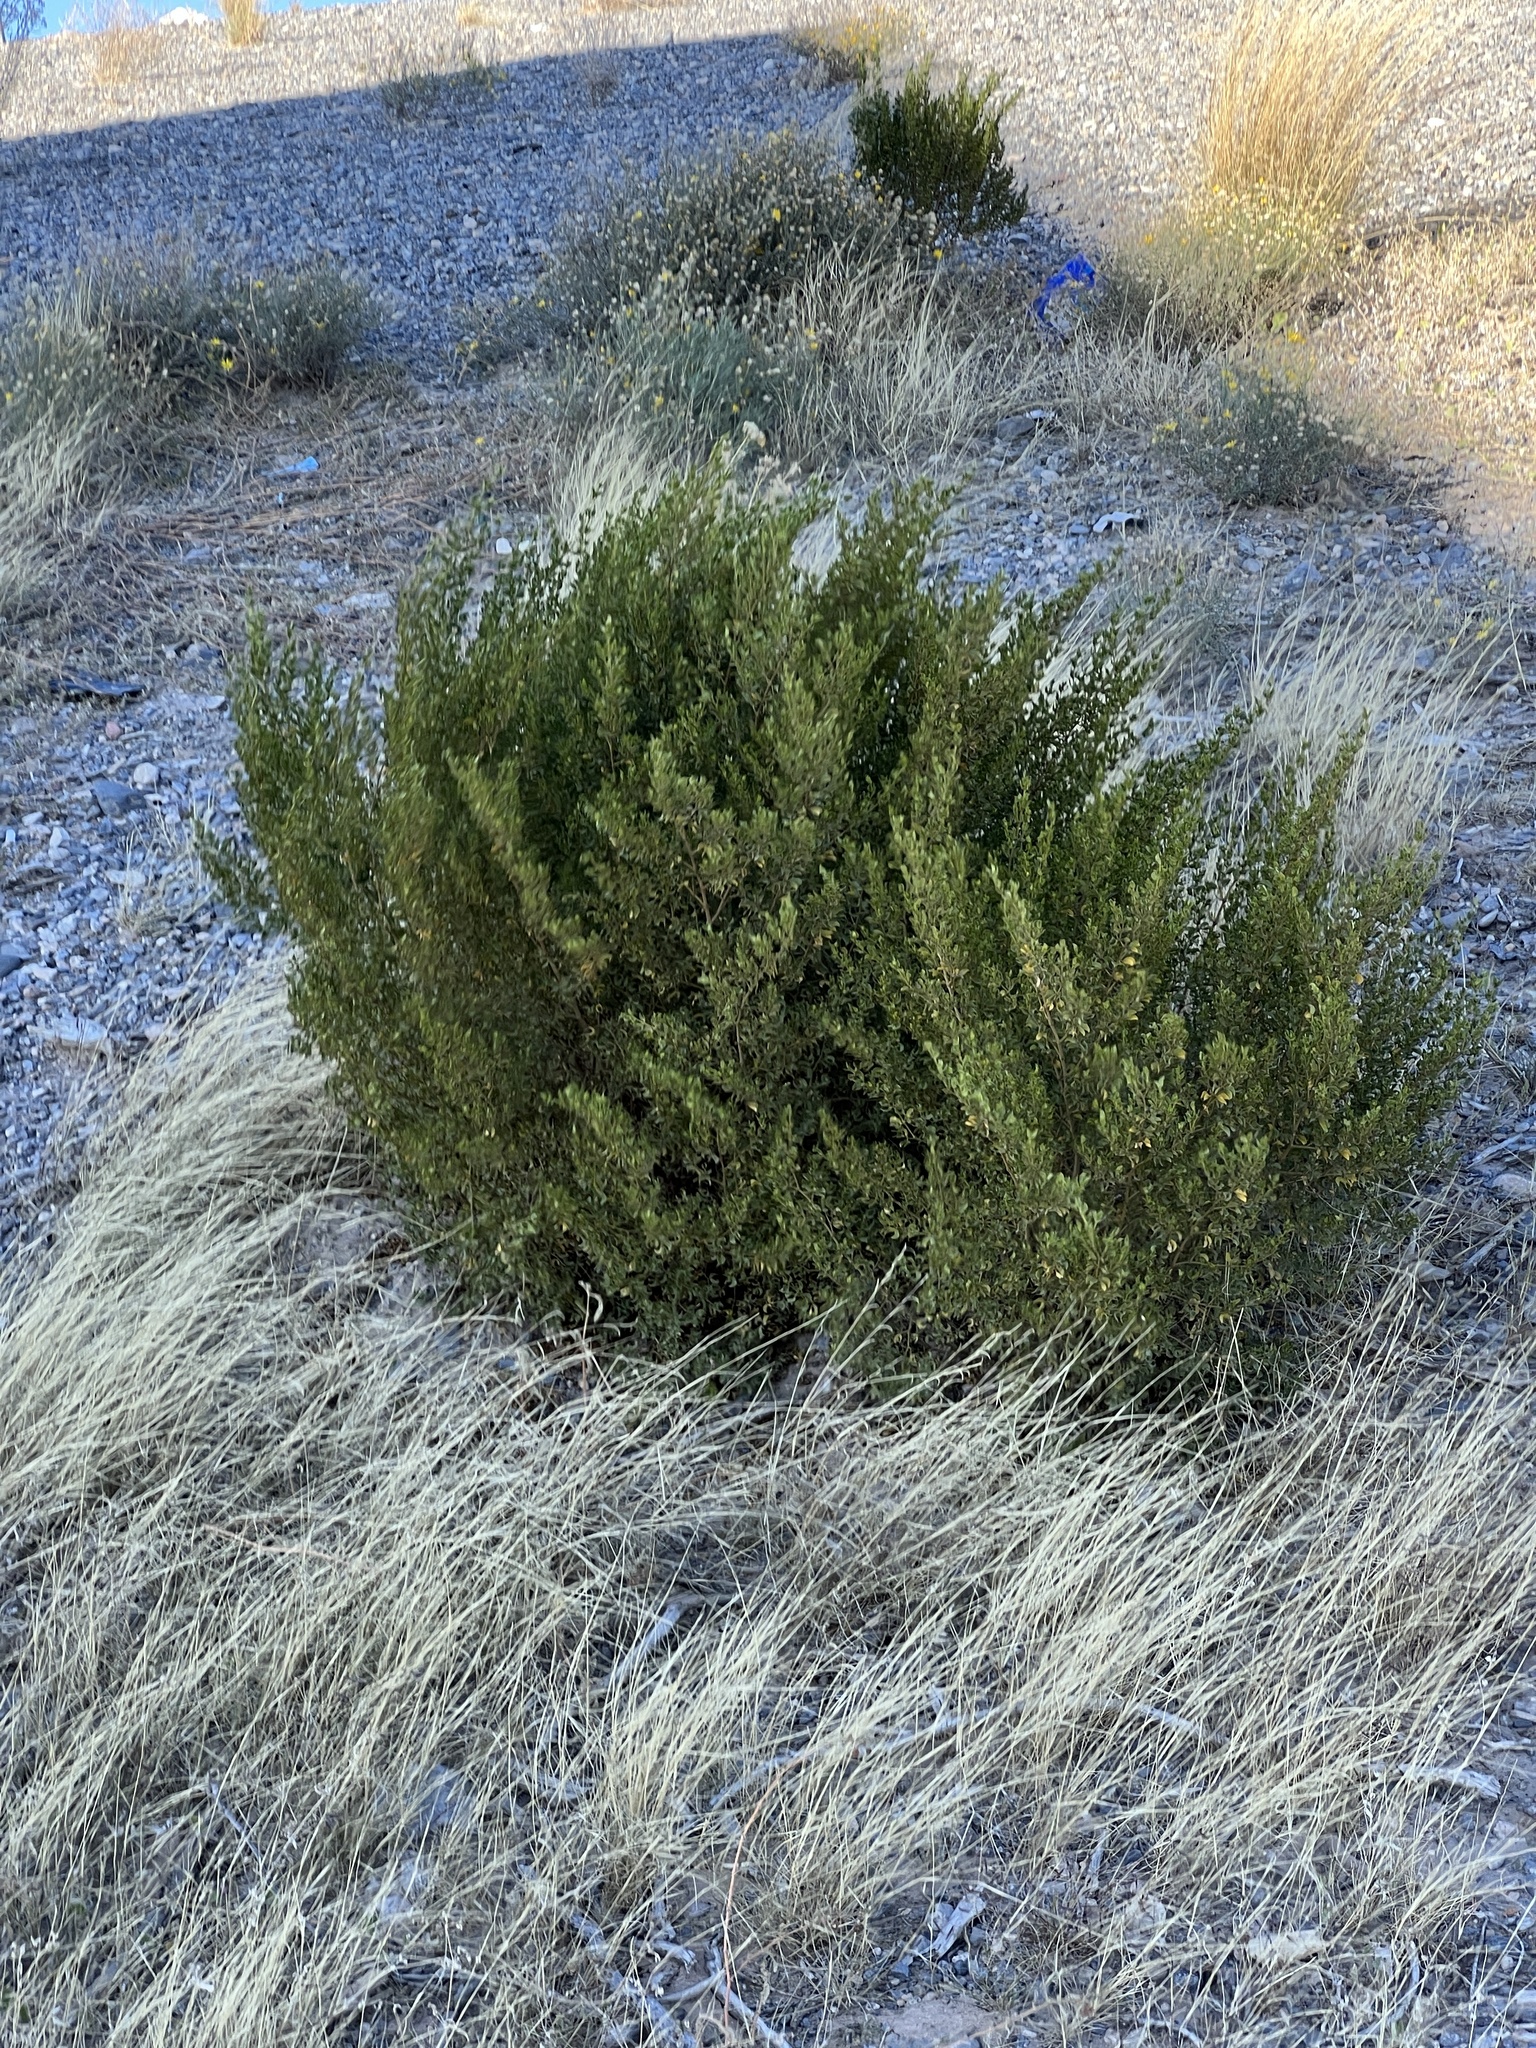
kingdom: Plantae
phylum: Tracheophyta
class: Magnoliopsida
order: Zygophyllales
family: Zygophyllaceae
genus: Larrea
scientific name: Larrea tridentata
